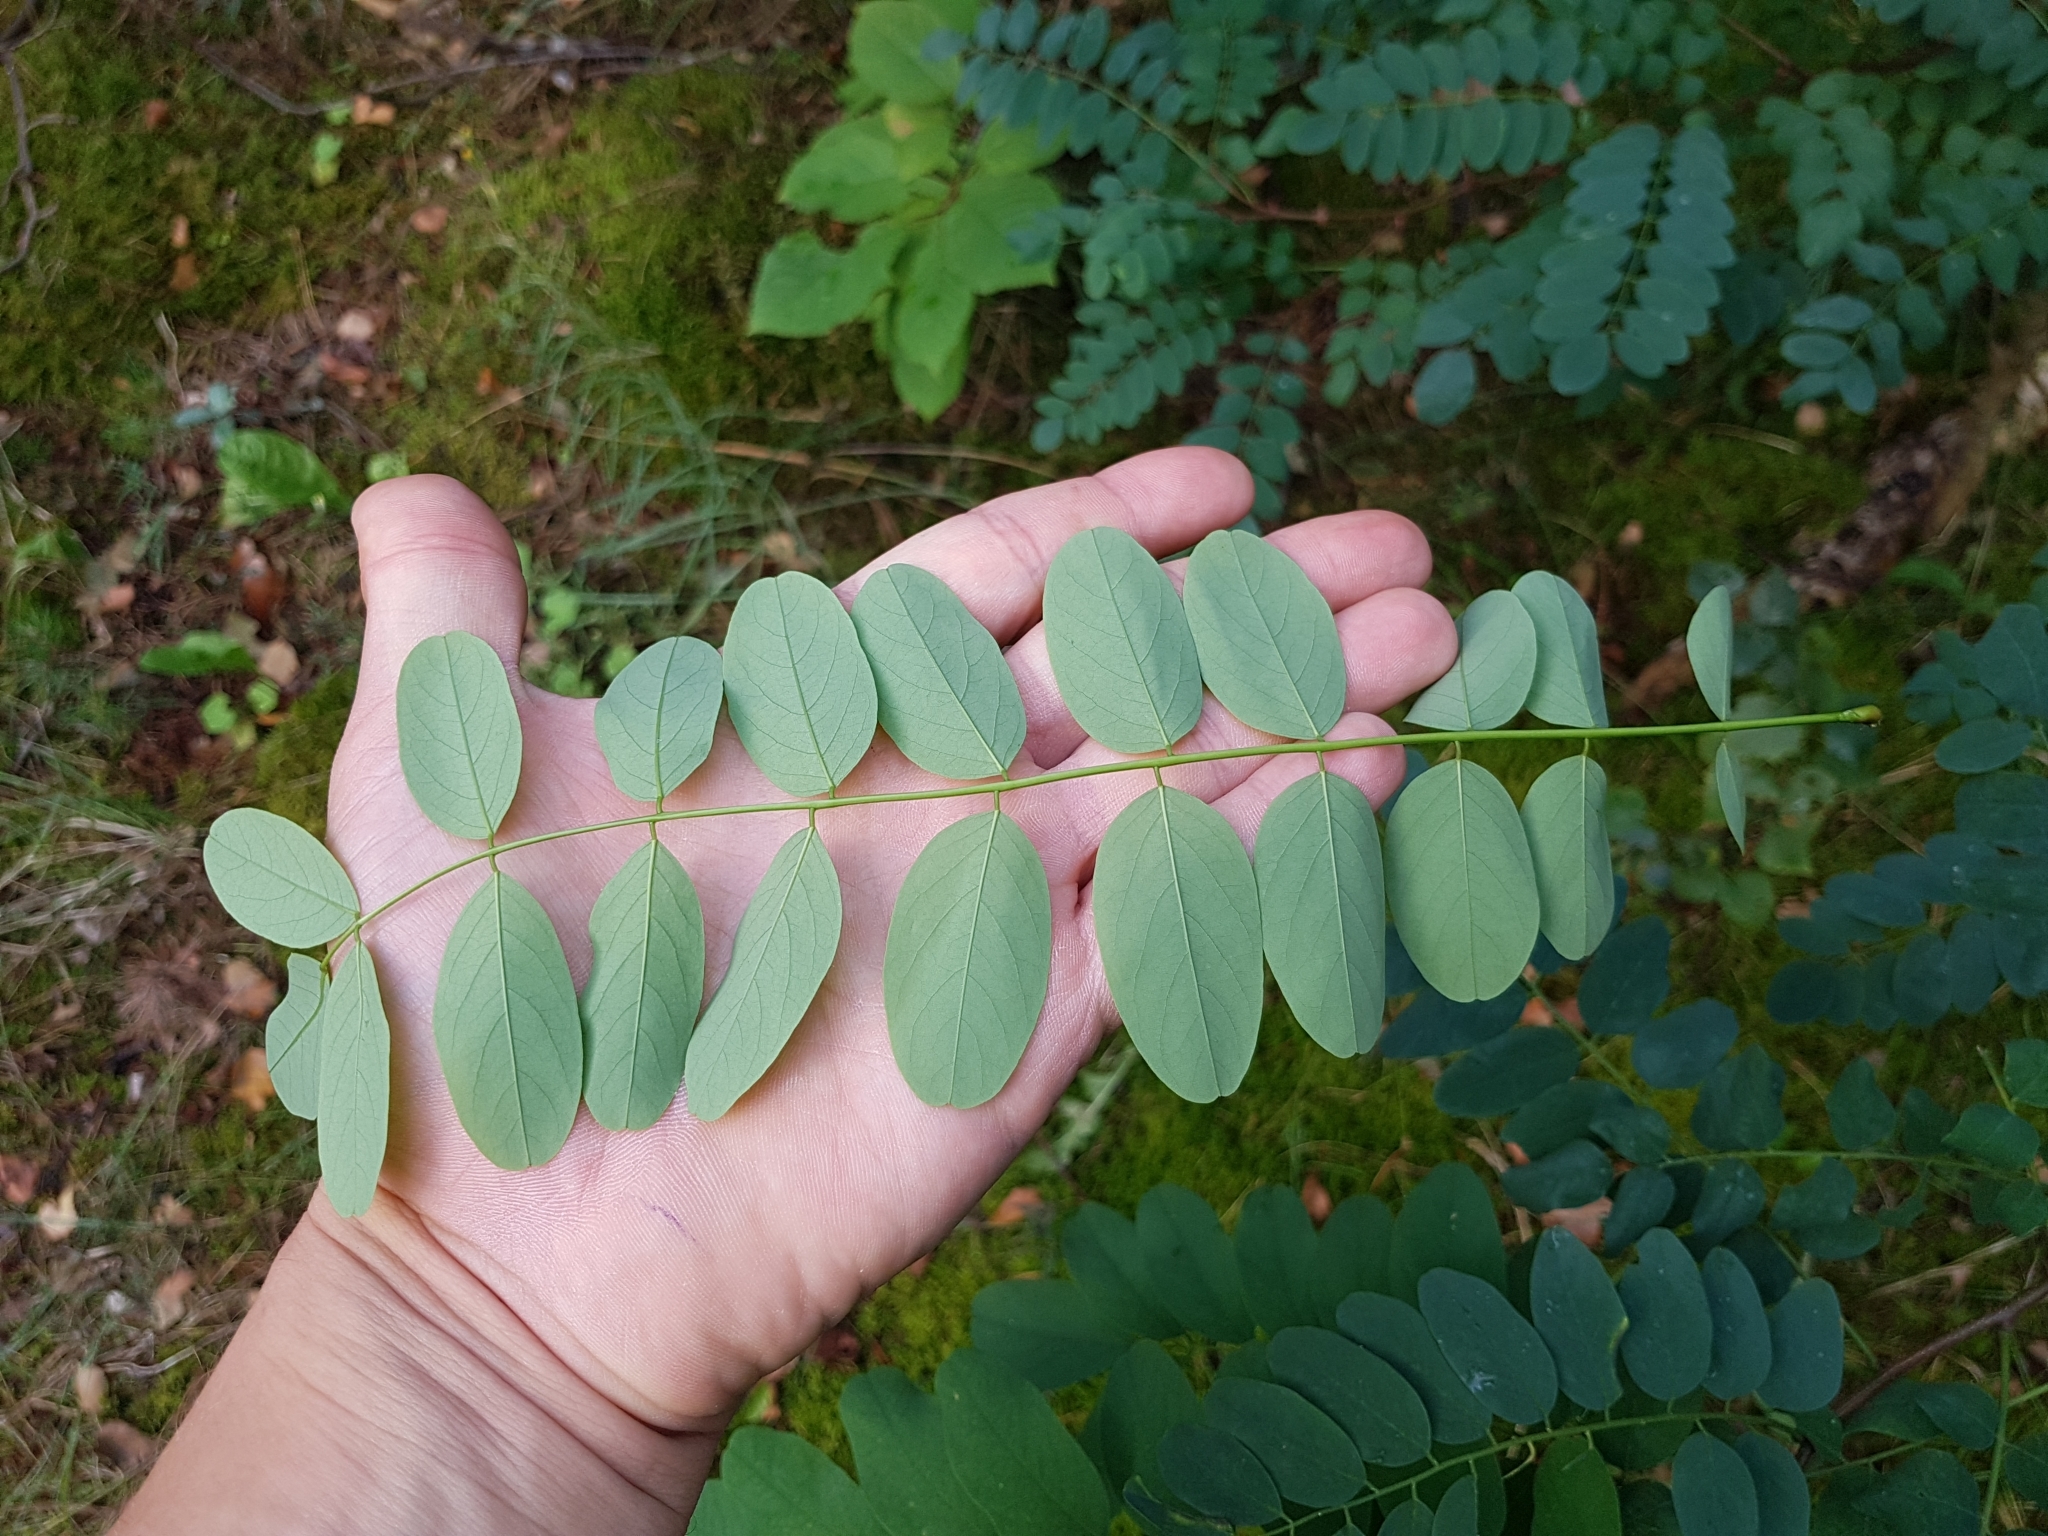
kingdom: Plantae
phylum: Tracheophyta
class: Magnoliopsida
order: Fabales
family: Fabaceae
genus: Robinia
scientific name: Robinia pseudoacacia
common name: Black locust
